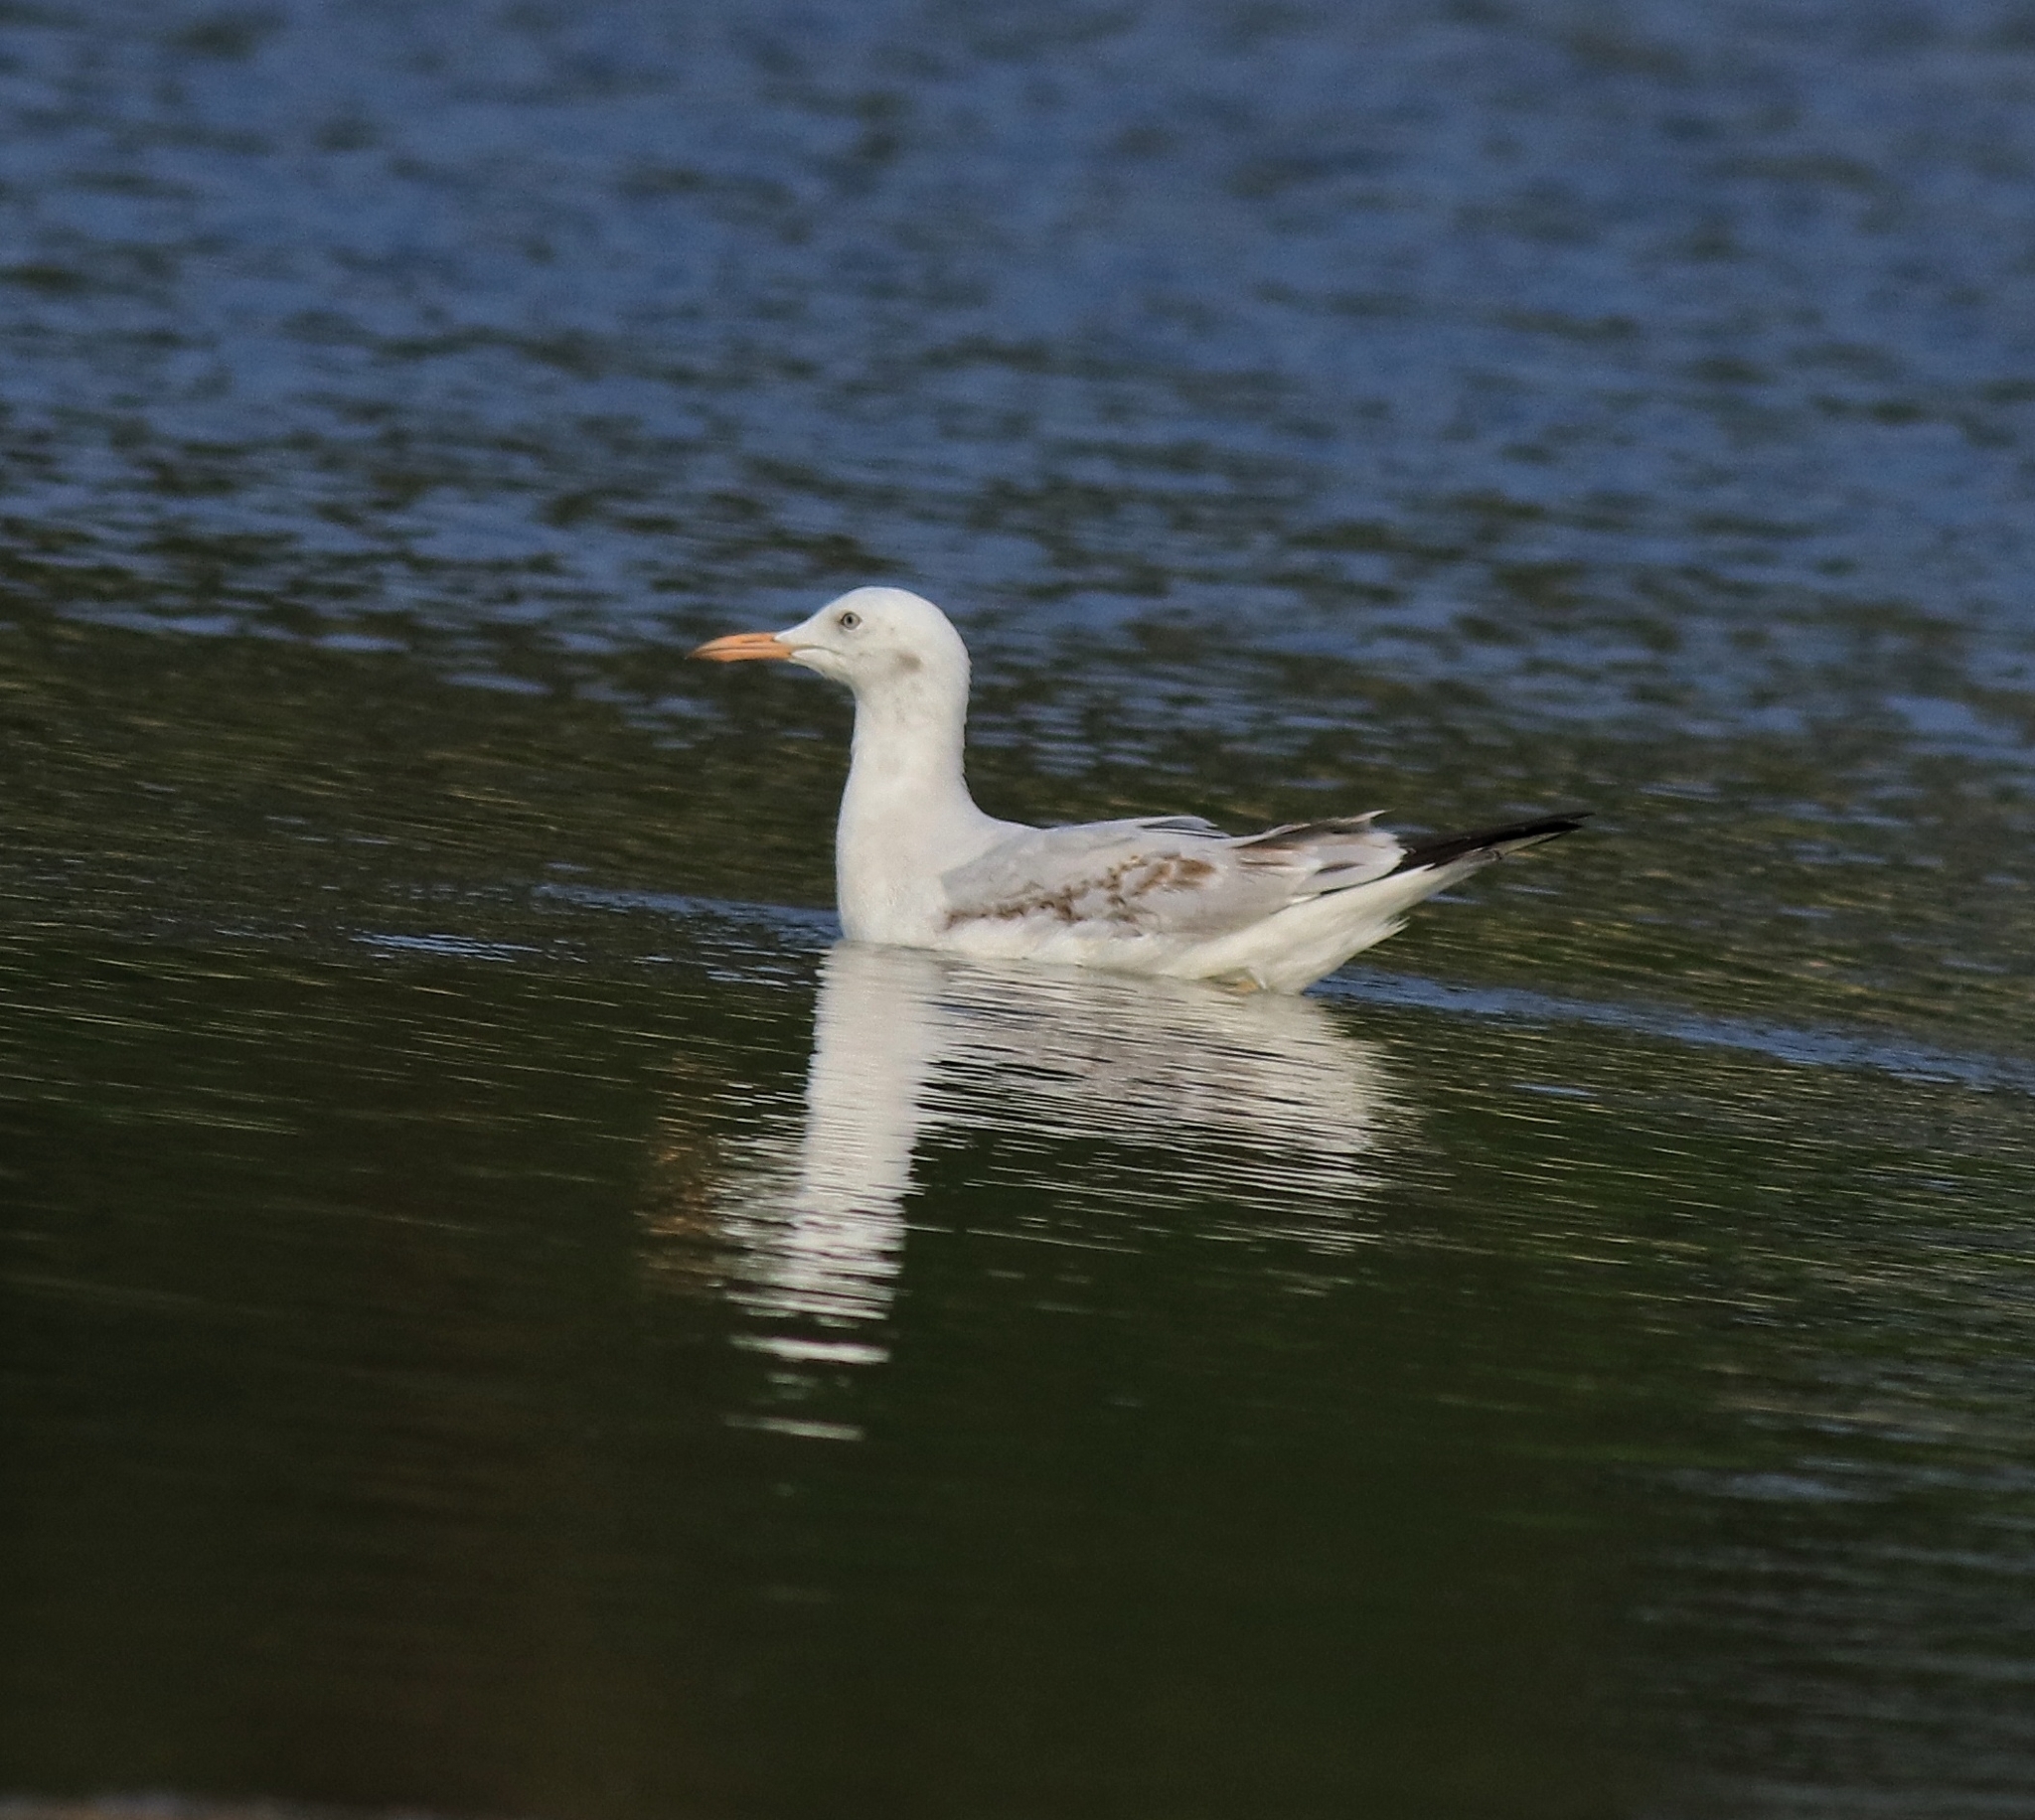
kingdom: Animalia
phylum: Chordata
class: Aves
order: Charadriiformes
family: Laridae
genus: Chroicocephalus
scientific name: Chroicocephalus genei
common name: Slender-billed gull
